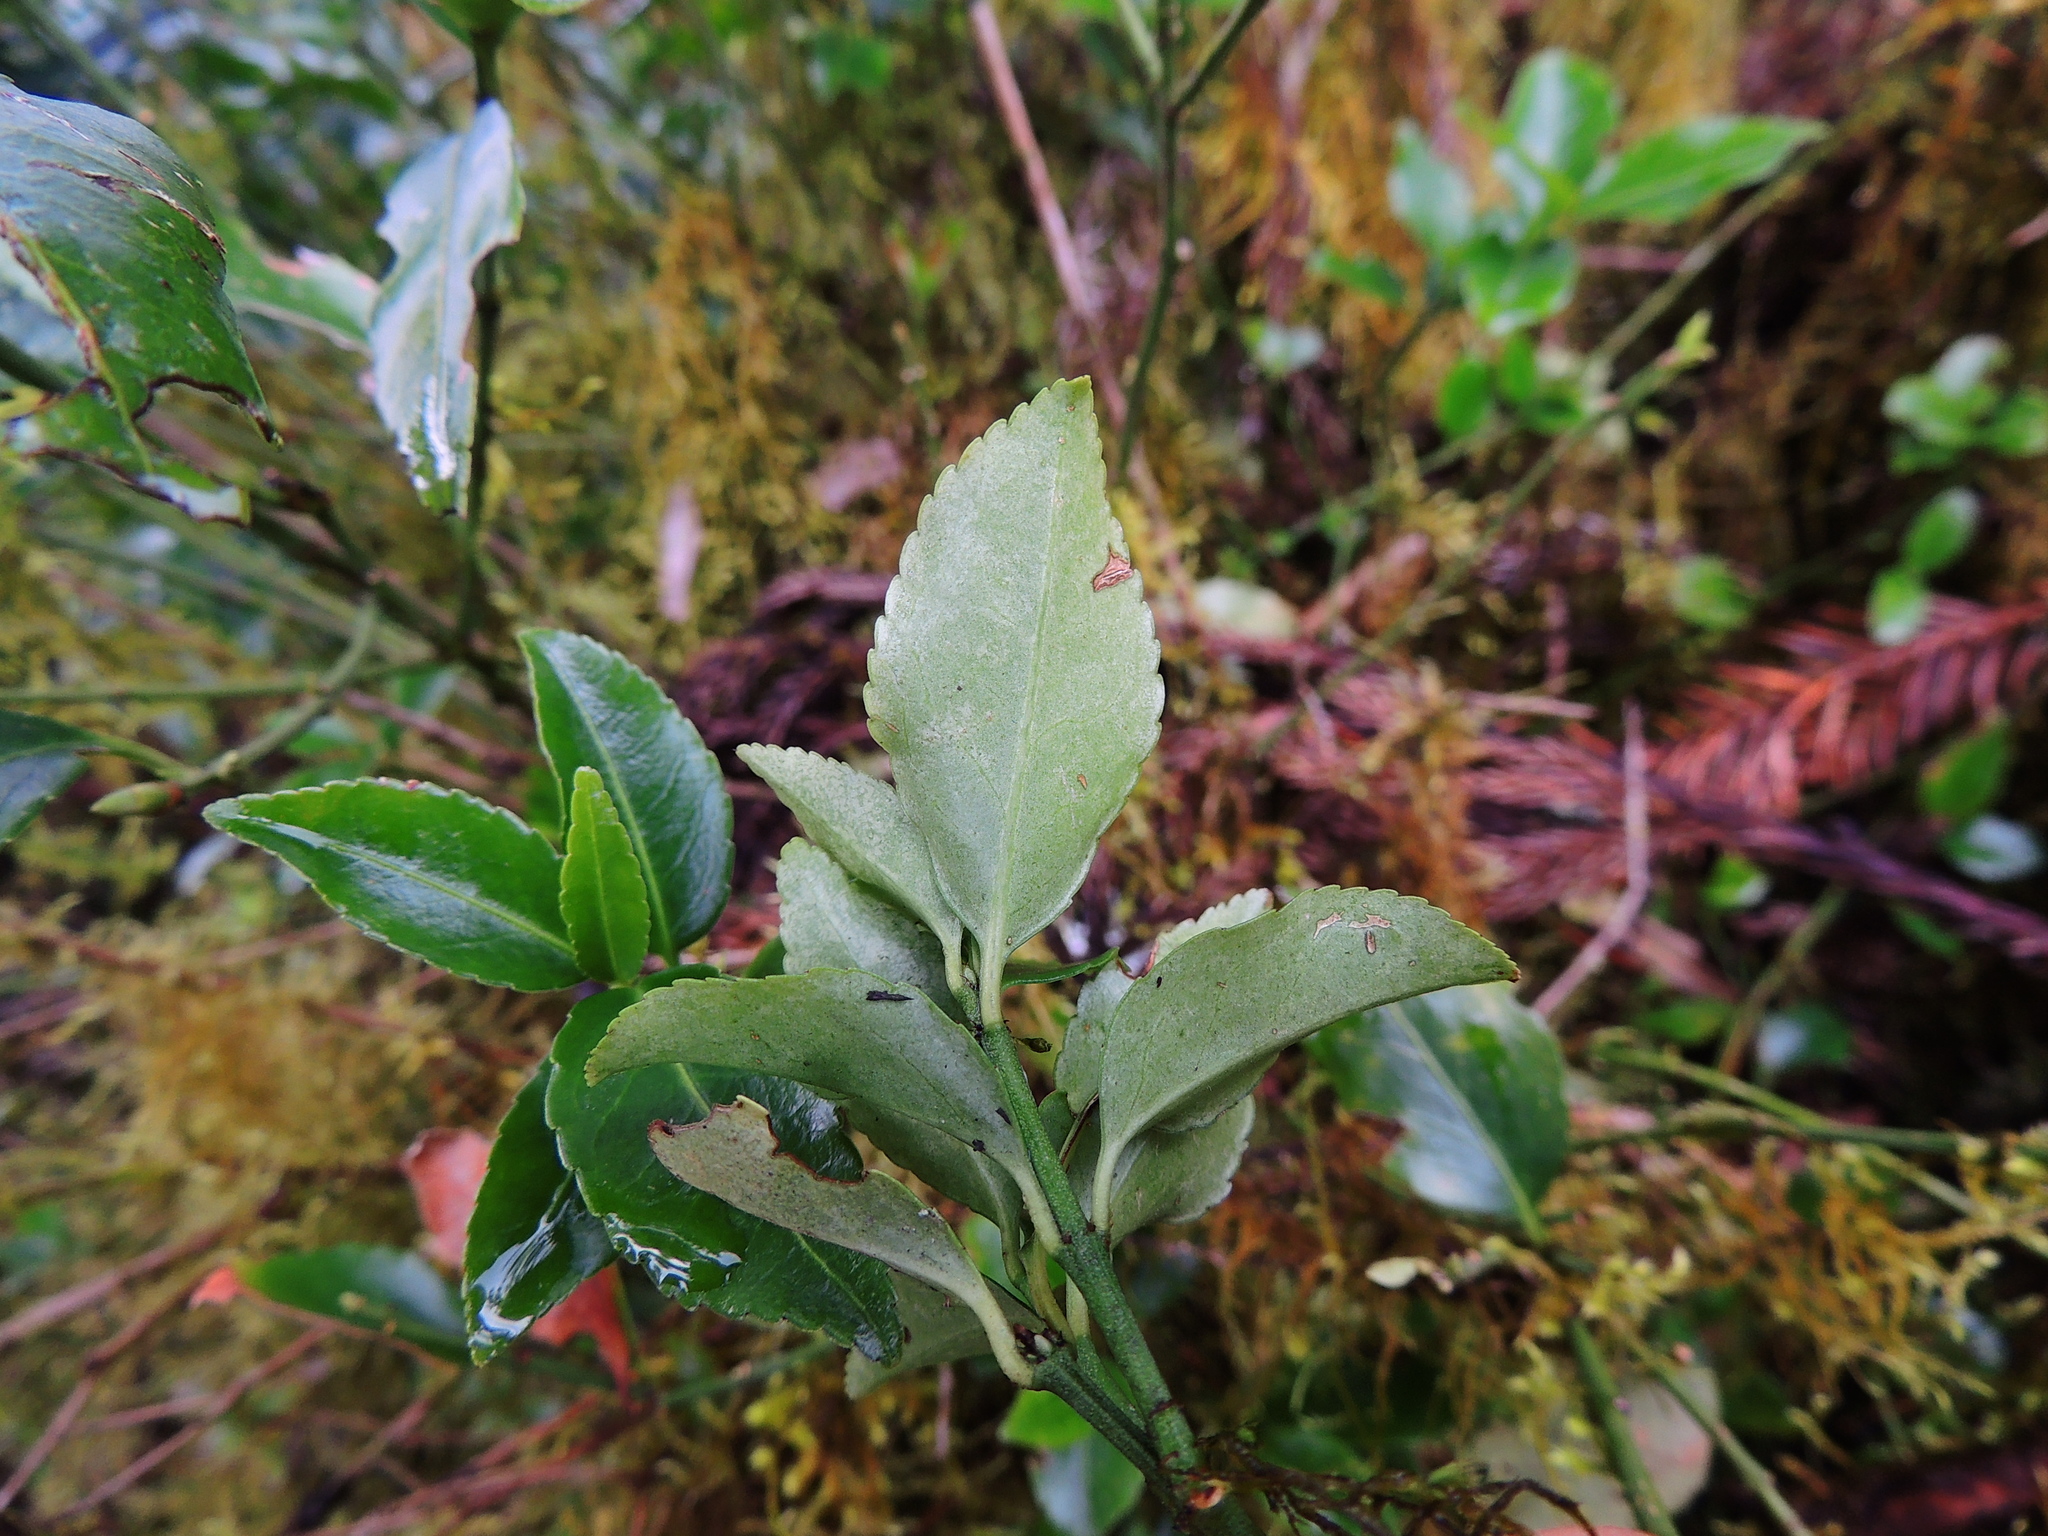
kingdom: Plantae
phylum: Tracheophyta
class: Magnoliopsida
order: Celastrales
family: Celastraceae
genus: Euonymus
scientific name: Euonymus spraguei
